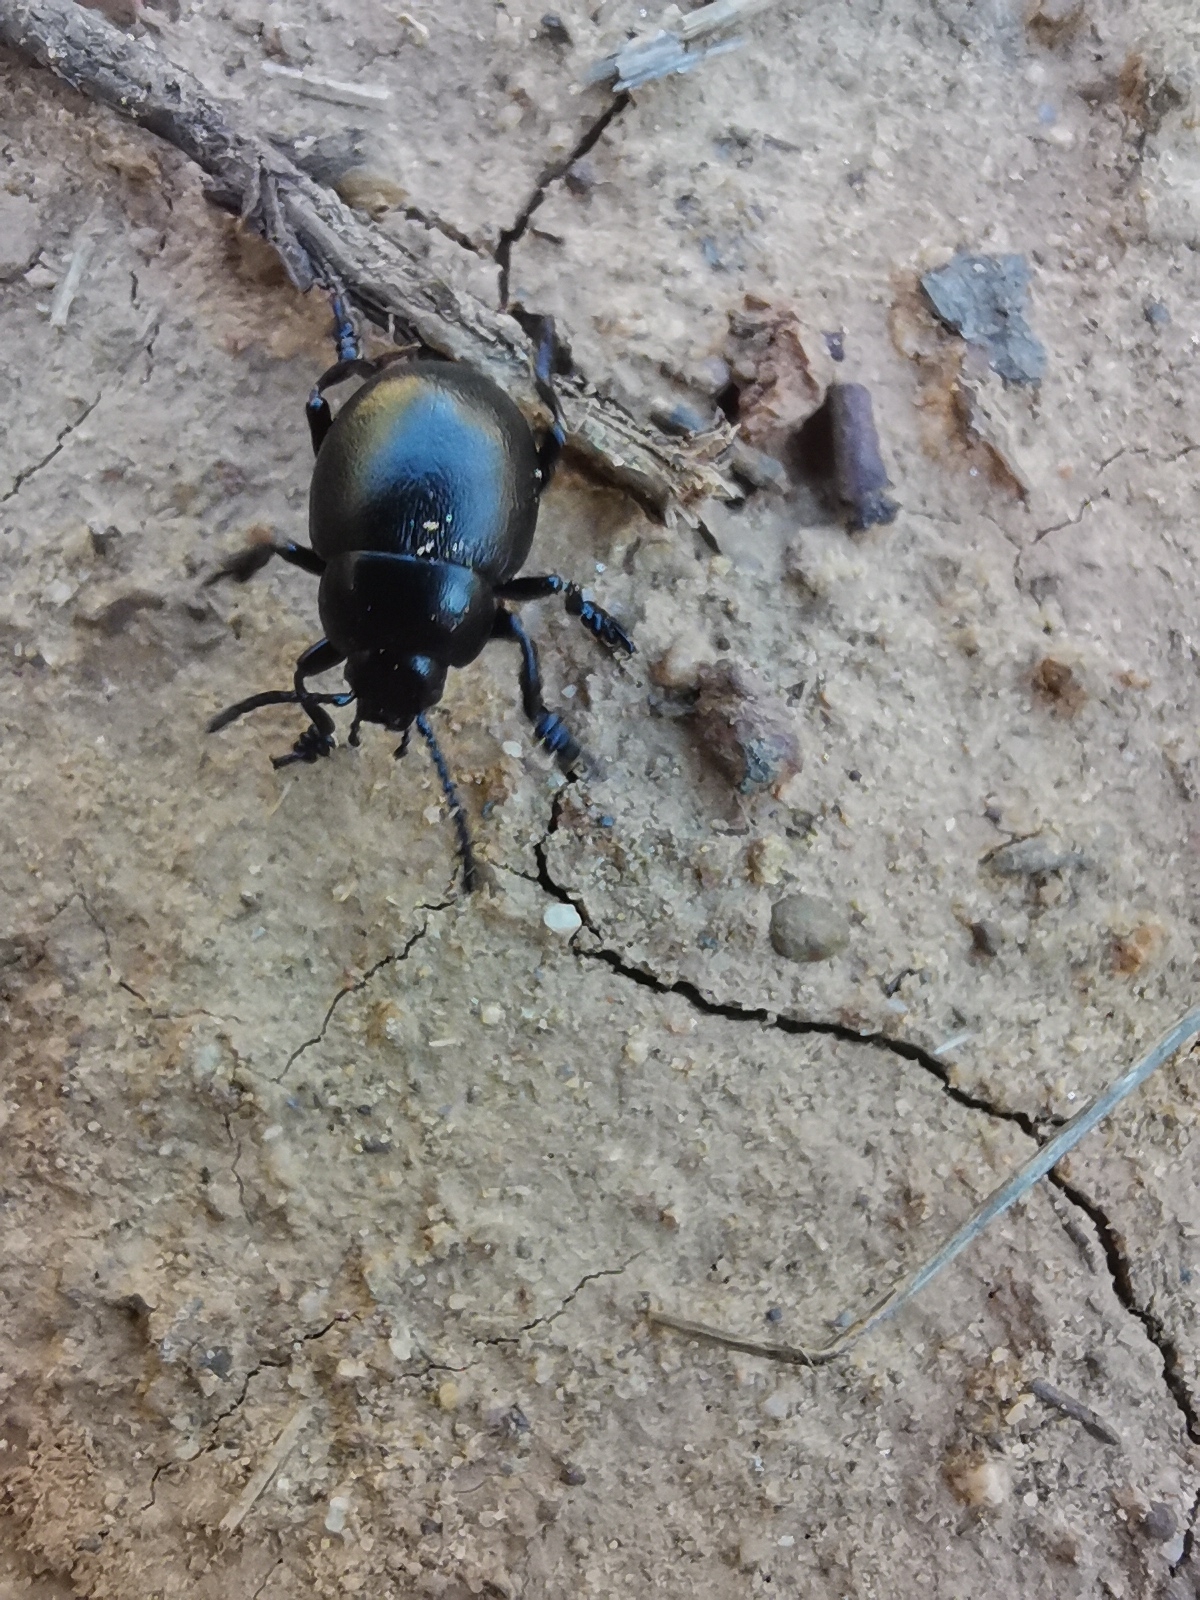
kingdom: Animalia
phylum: Arthropoda
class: Insecta
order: Coleoptera
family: Chrysomelidae
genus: Timarcha
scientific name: Timarcha tenebricosa
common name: Bloody-nosed beetle
